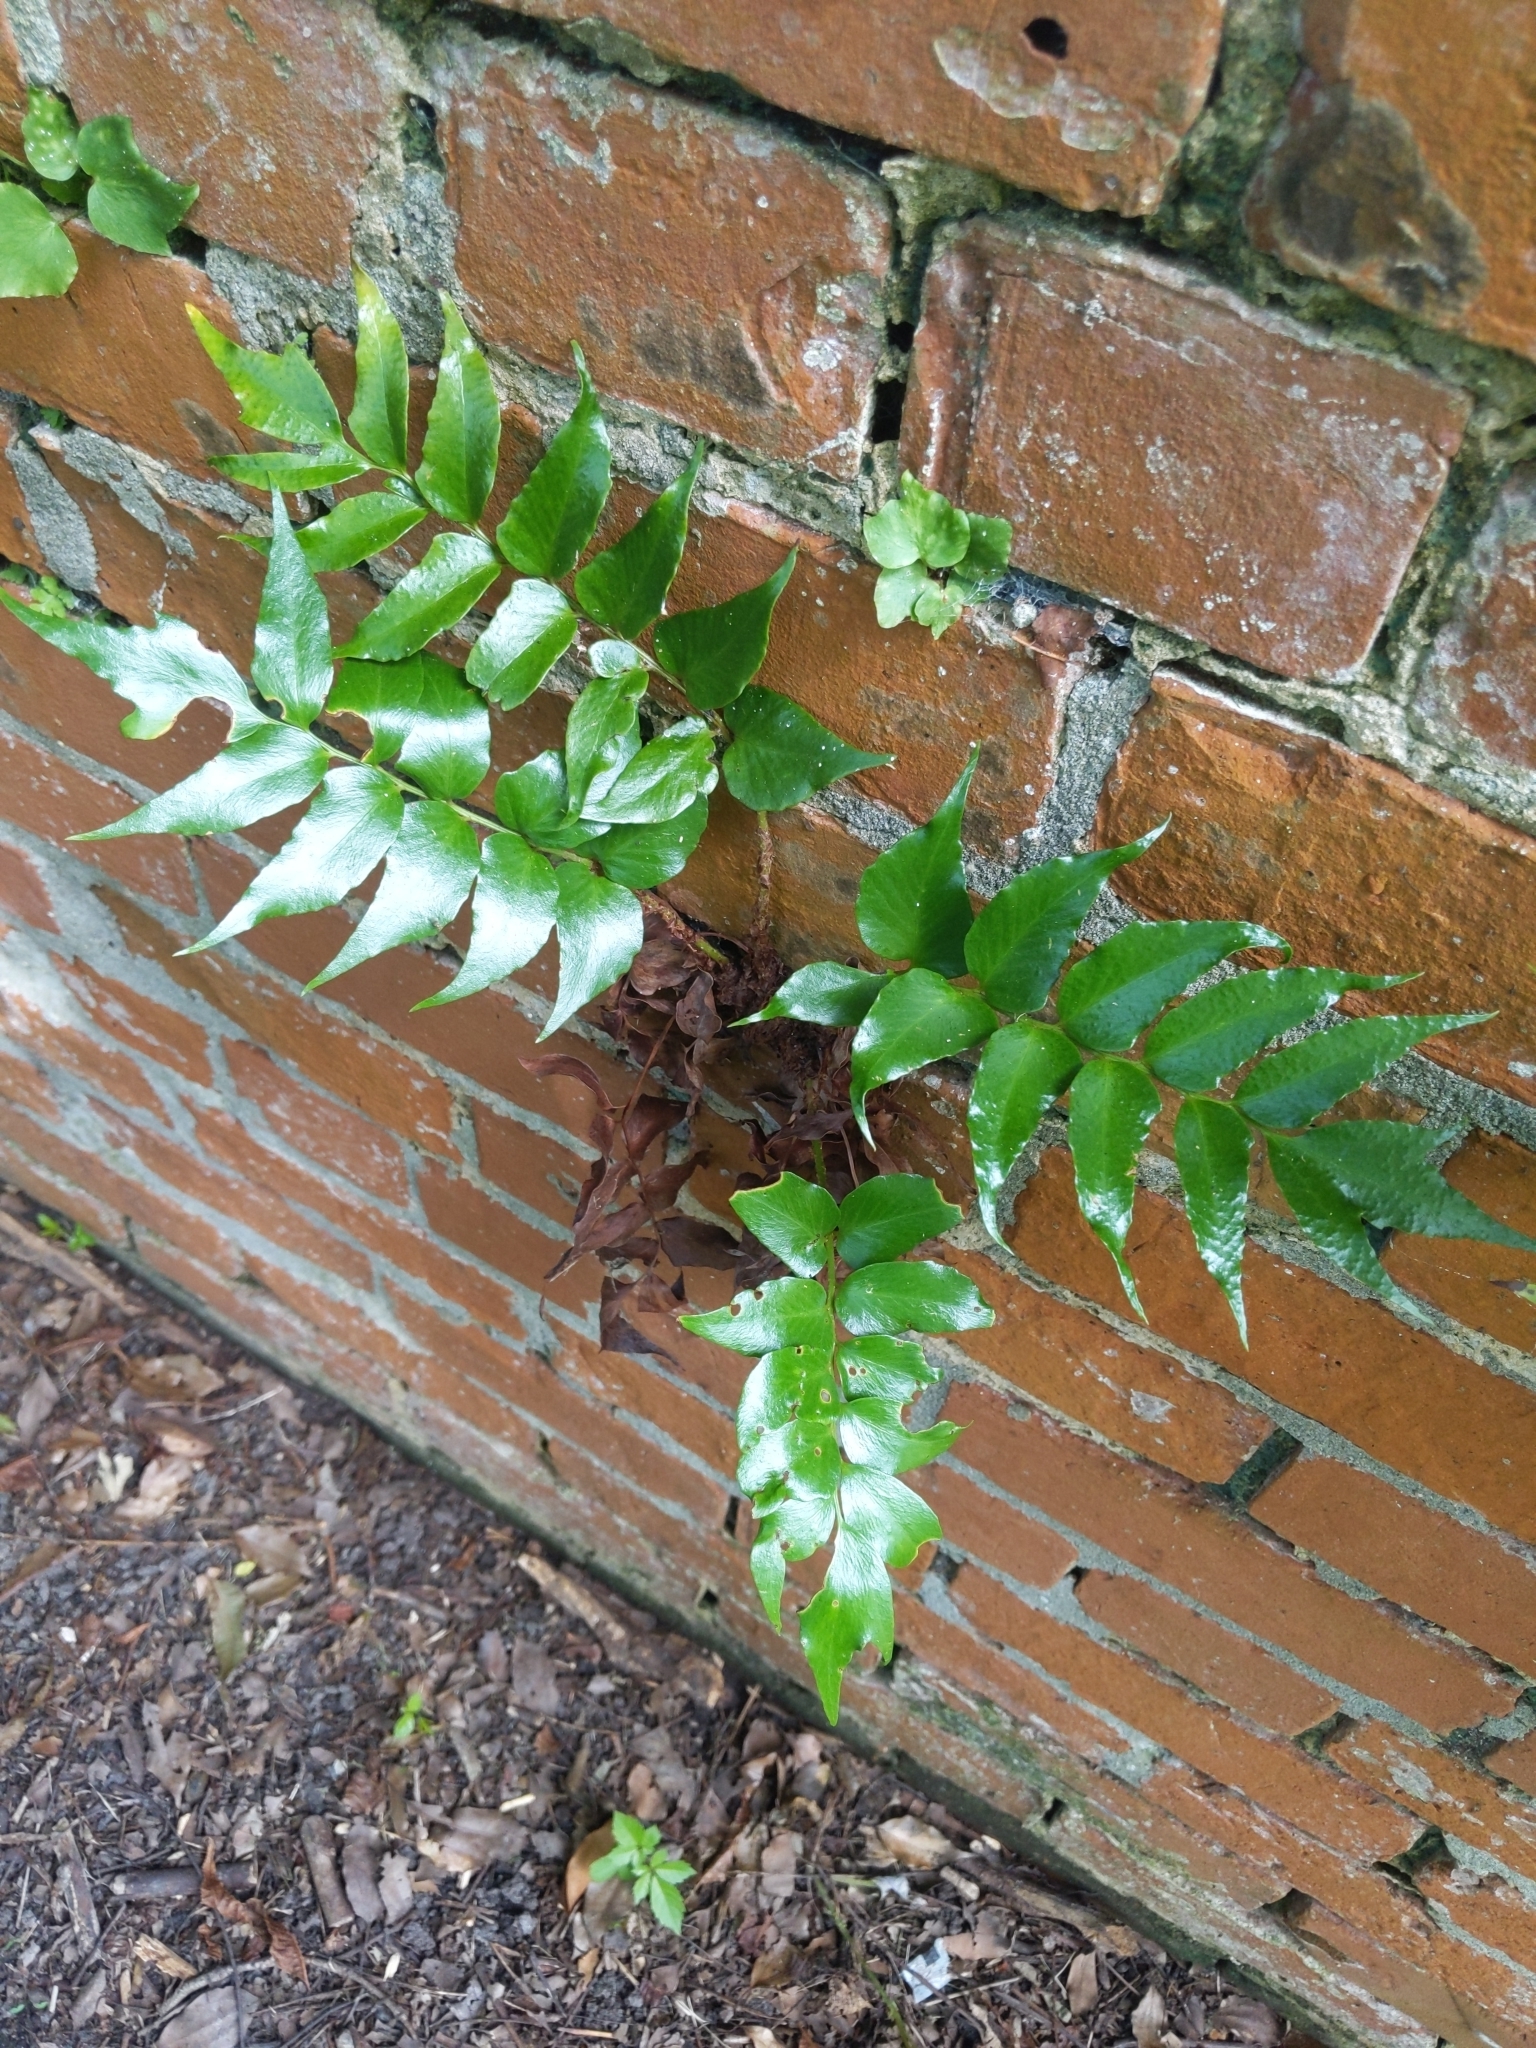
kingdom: Plantae
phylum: Tracheophyta
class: Polypodiopsida
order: Polypodiales
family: Dryopteridaceae
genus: Cyrtomium
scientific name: Cyrtomium falcatum
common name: House holly-fern
